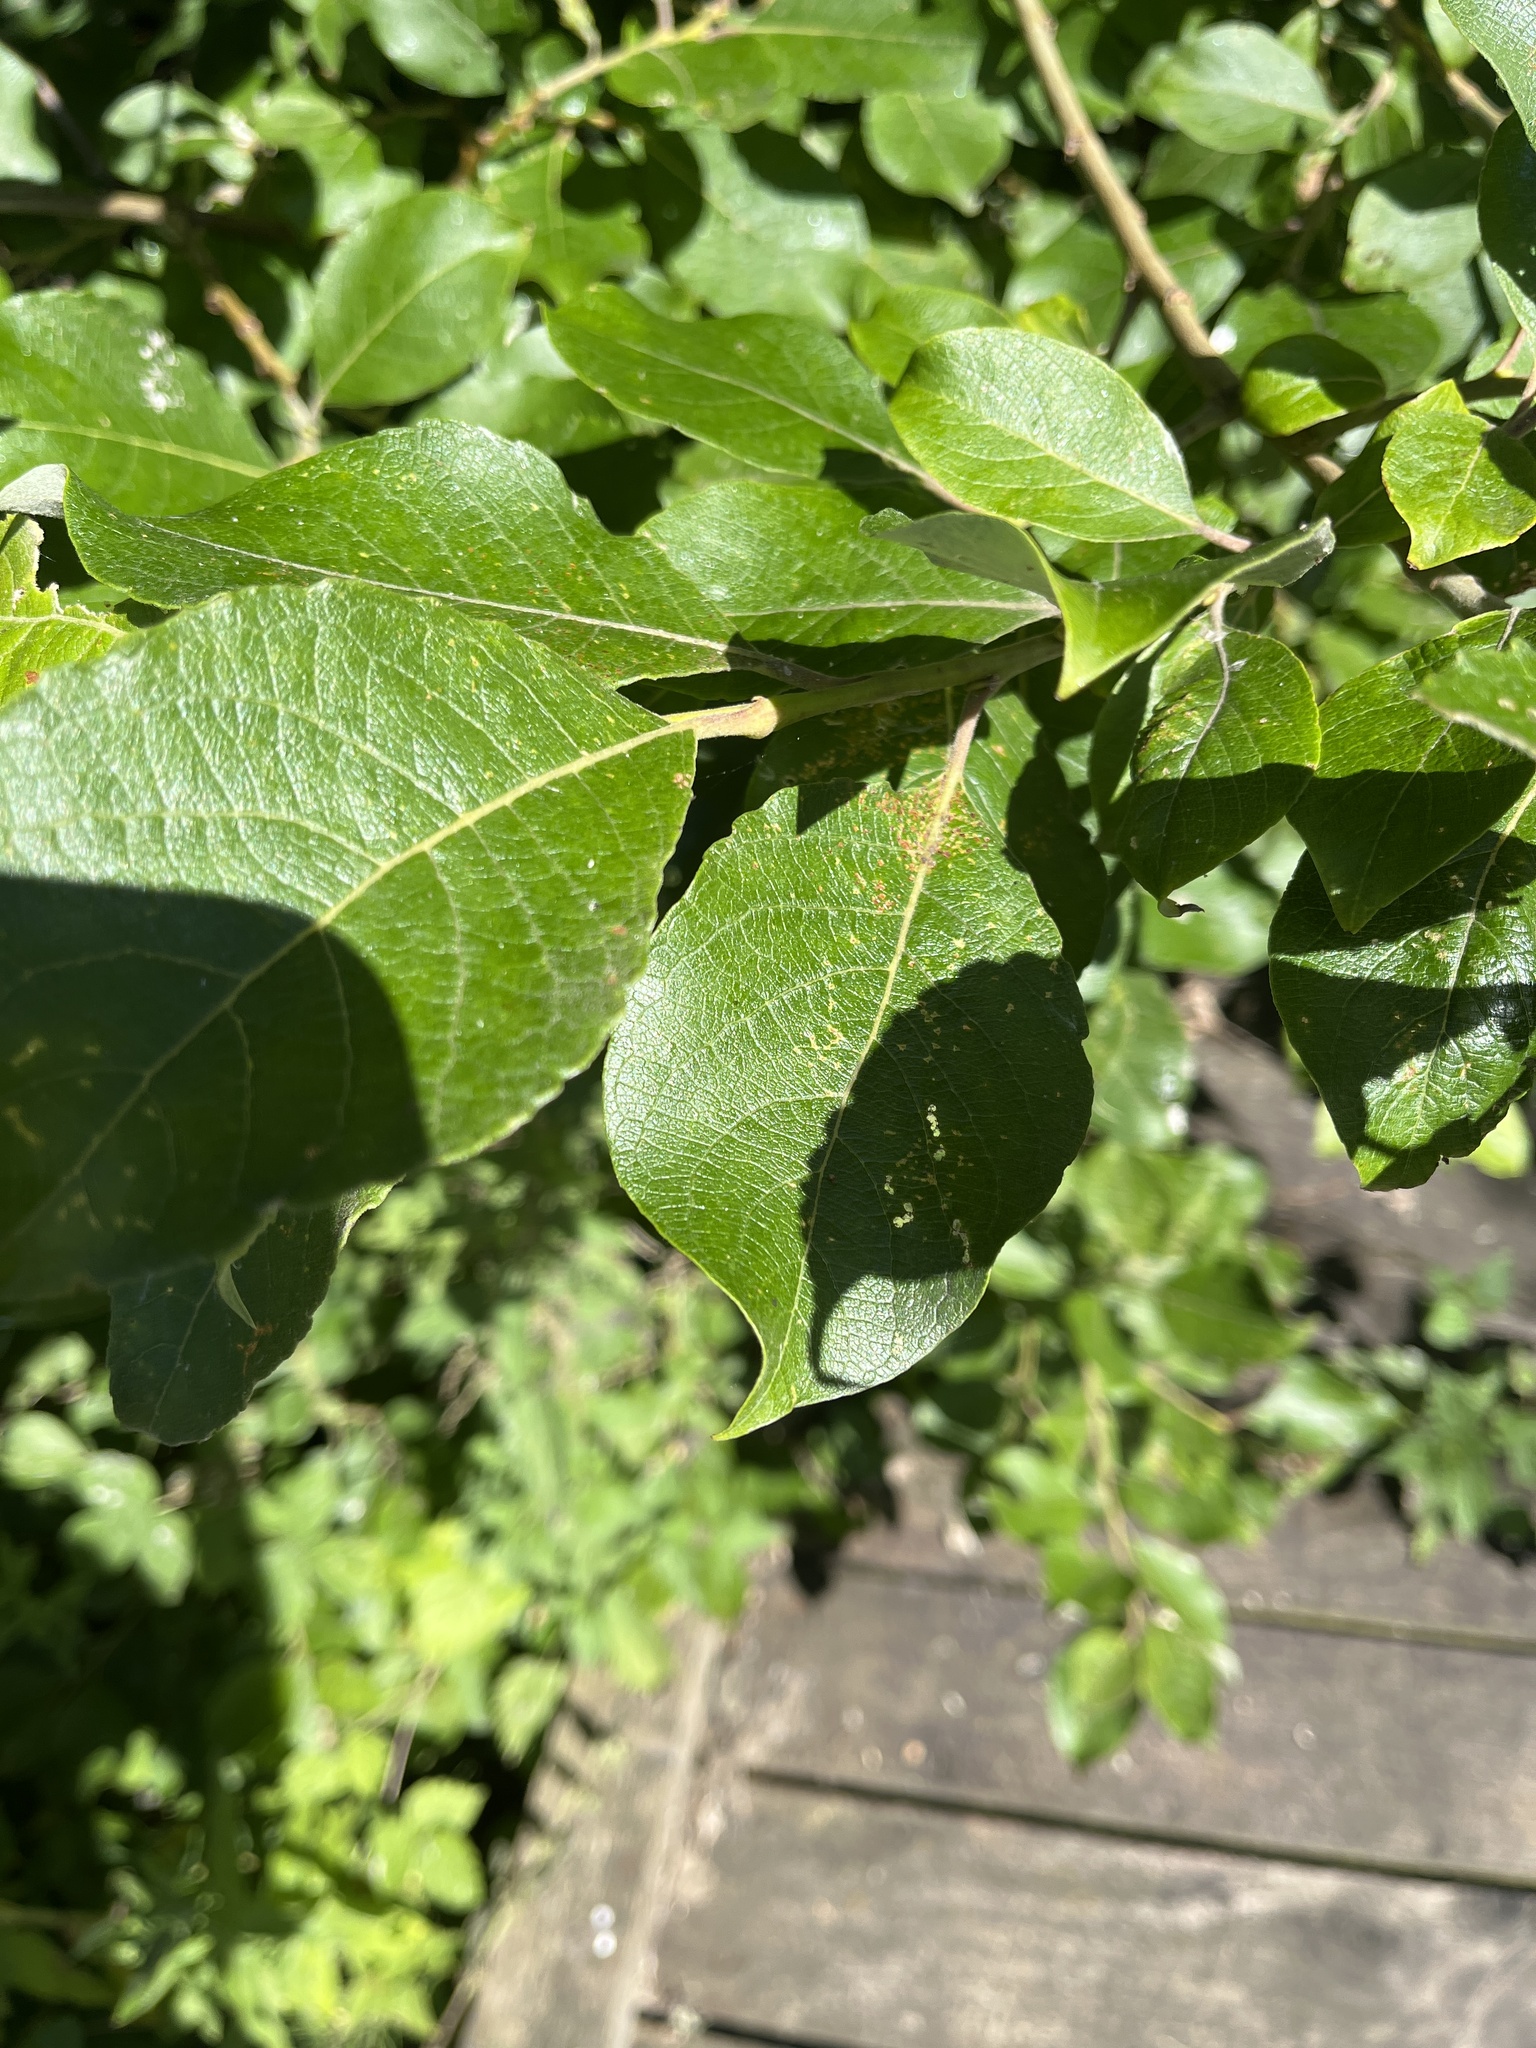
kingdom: Plantae
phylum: Tracheophyta
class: Magnoliopsida
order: Malpighiales
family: Salicaceae
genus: Salix
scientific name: Salix caprea
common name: Goat willow
